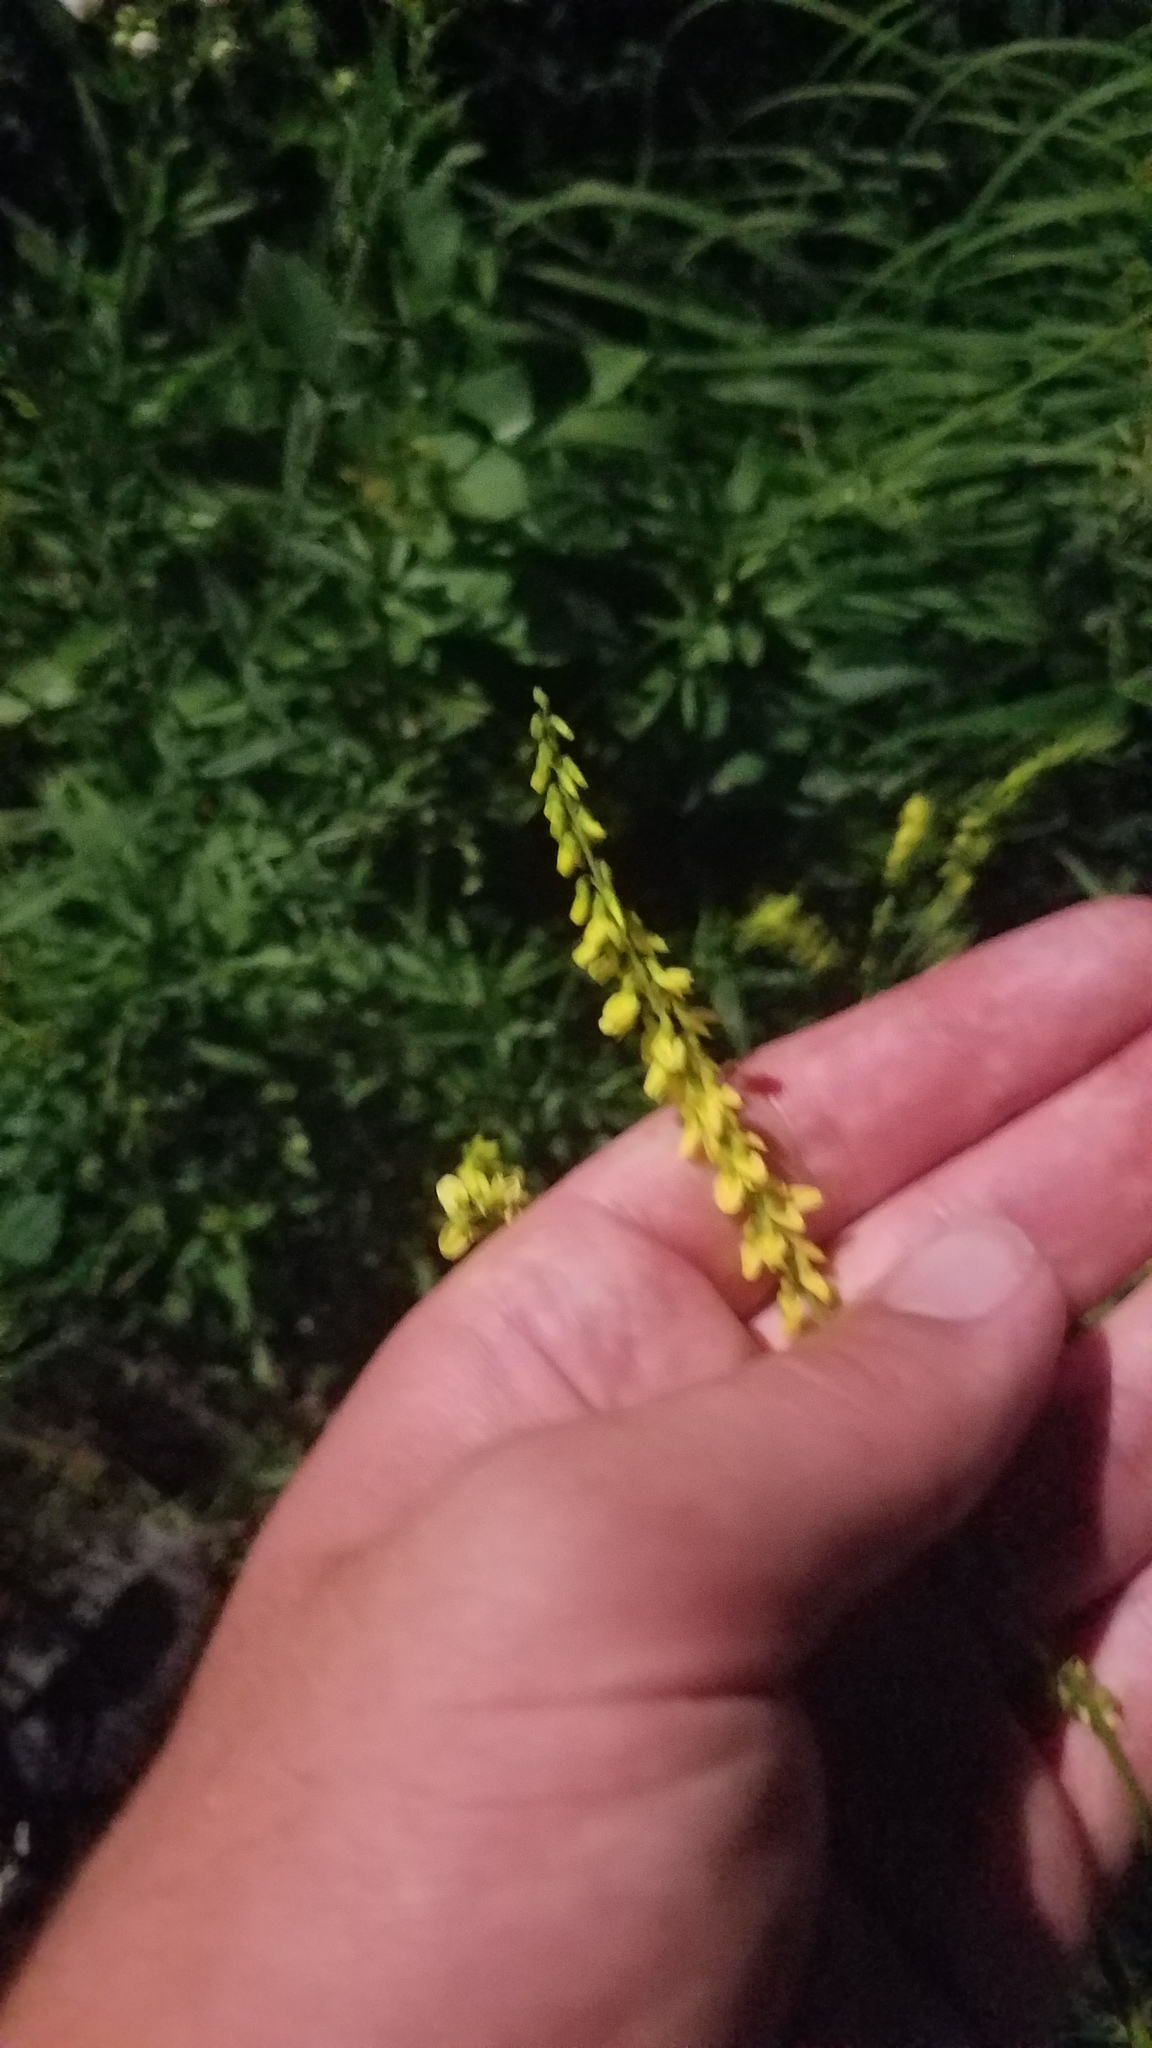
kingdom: Plantae
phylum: Tracheophyta
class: Magnoliopsida
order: Fabales
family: Fabaceae
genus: Melilotus
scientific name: Melilotus officinalis
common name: Sweetclover
